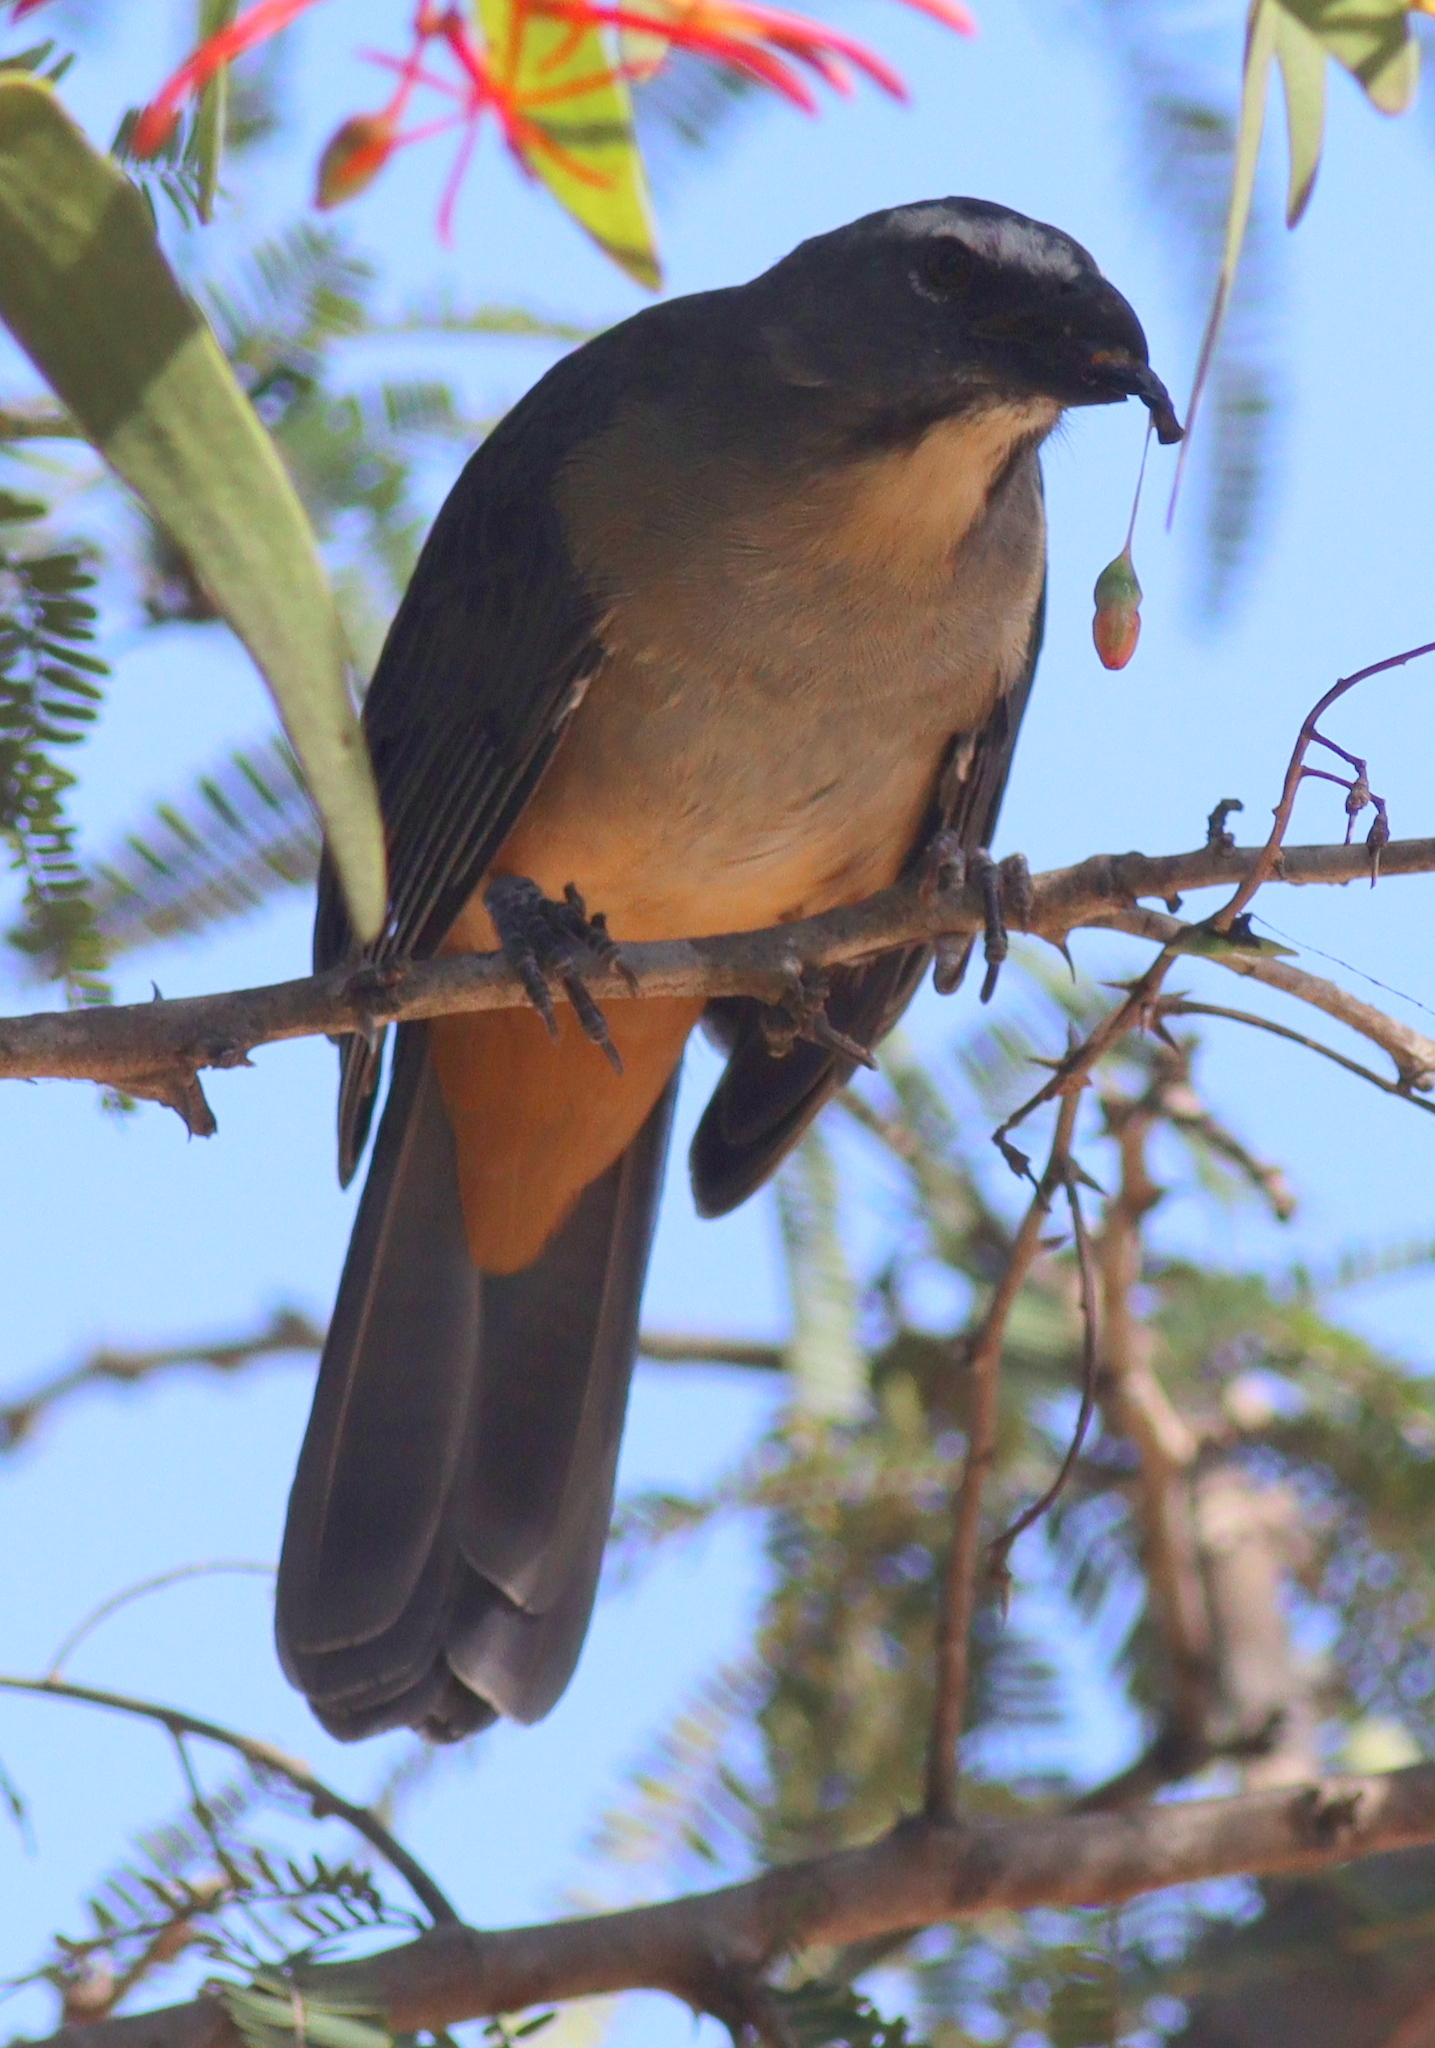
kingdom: Animalia
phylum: Chordata
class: Aves
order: Passeriformes
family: Thraupidae
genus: Saltator
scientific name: Saltator coerulescens
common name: Grayish saltator
